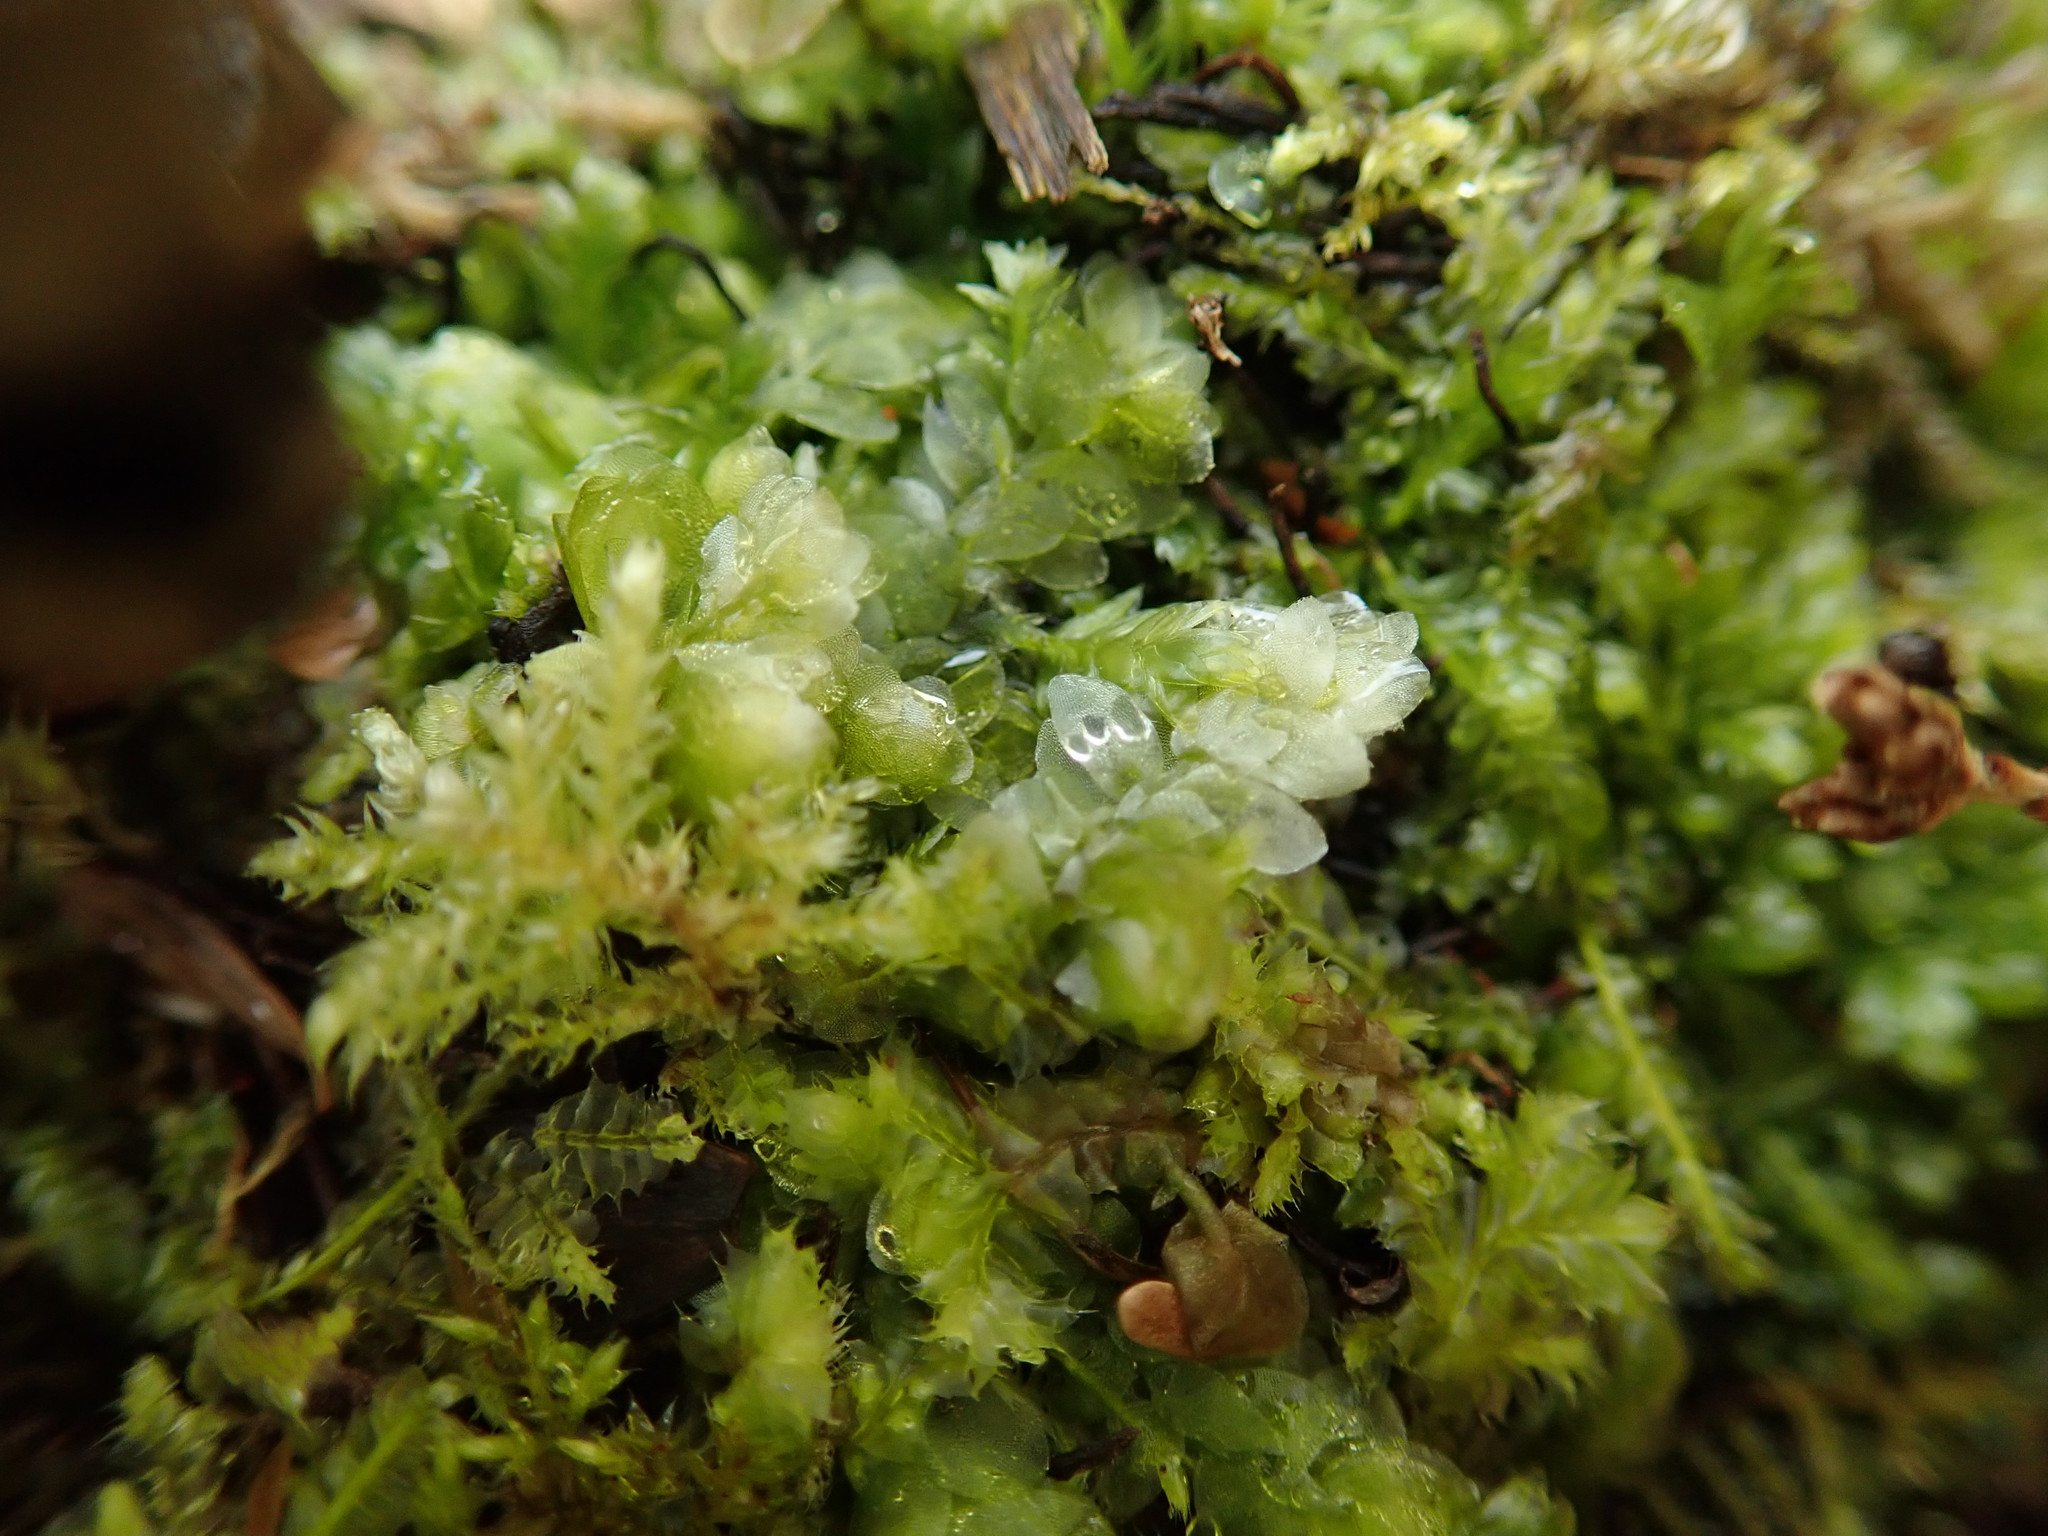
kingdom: Plantae
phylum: Bryophyta
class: Bryopsida
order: Hookeriales
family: Hookeriaceae
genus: Hookeria
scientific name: Hookeria lucens
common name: Shining hookeria
